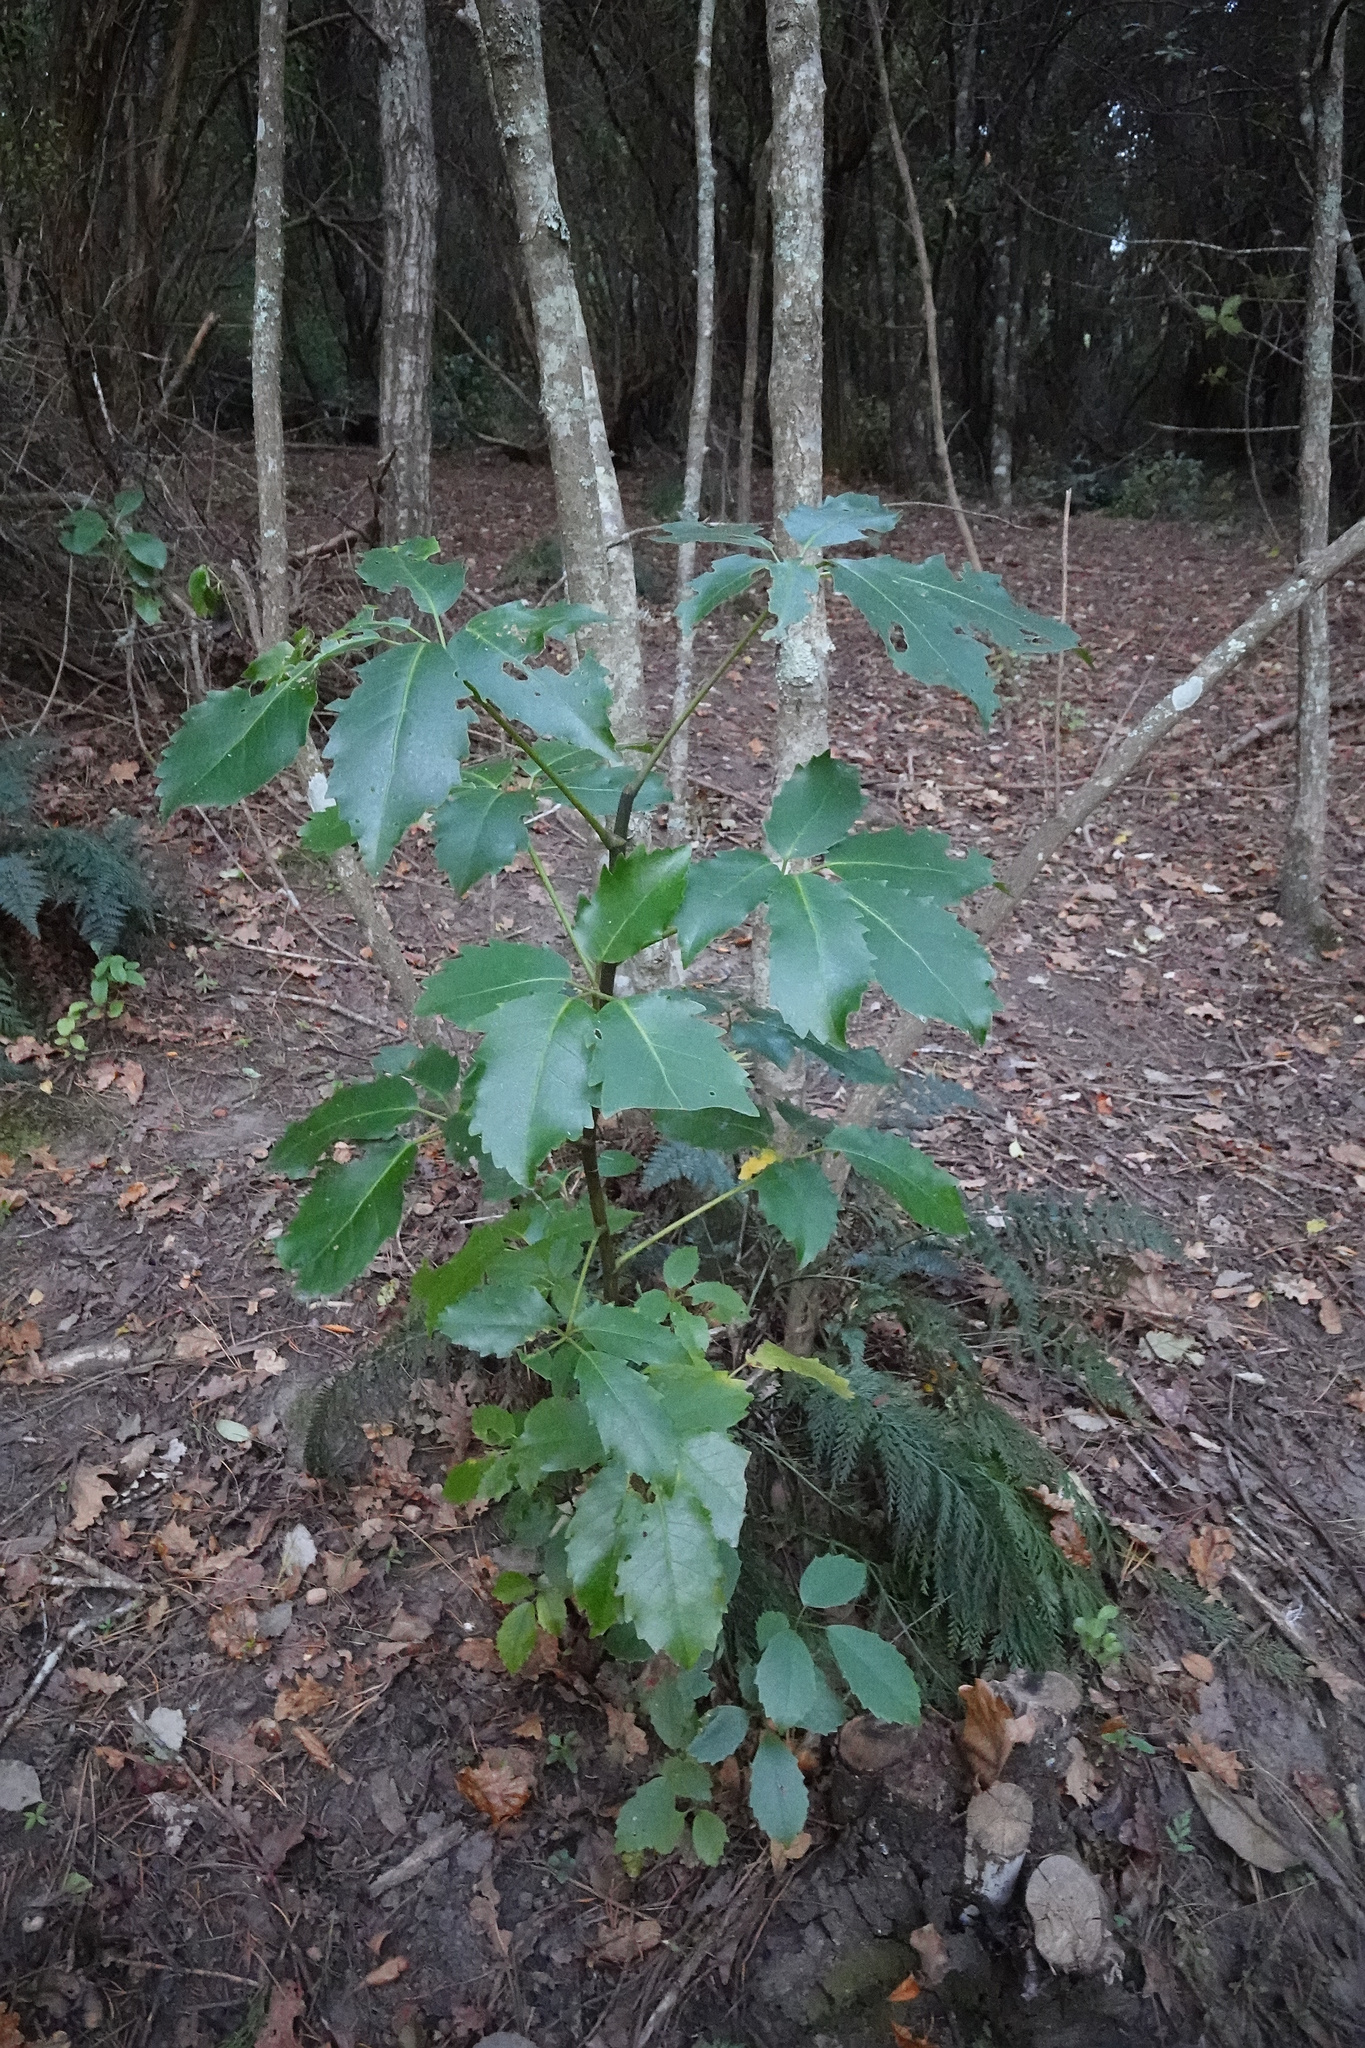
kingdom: Plantae
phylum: Tracheophyta
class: Magnoliopsida
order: Apiales
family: Araliaceae
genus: Neopanax
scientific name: Neopanax arboreus
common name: Five-fingers
